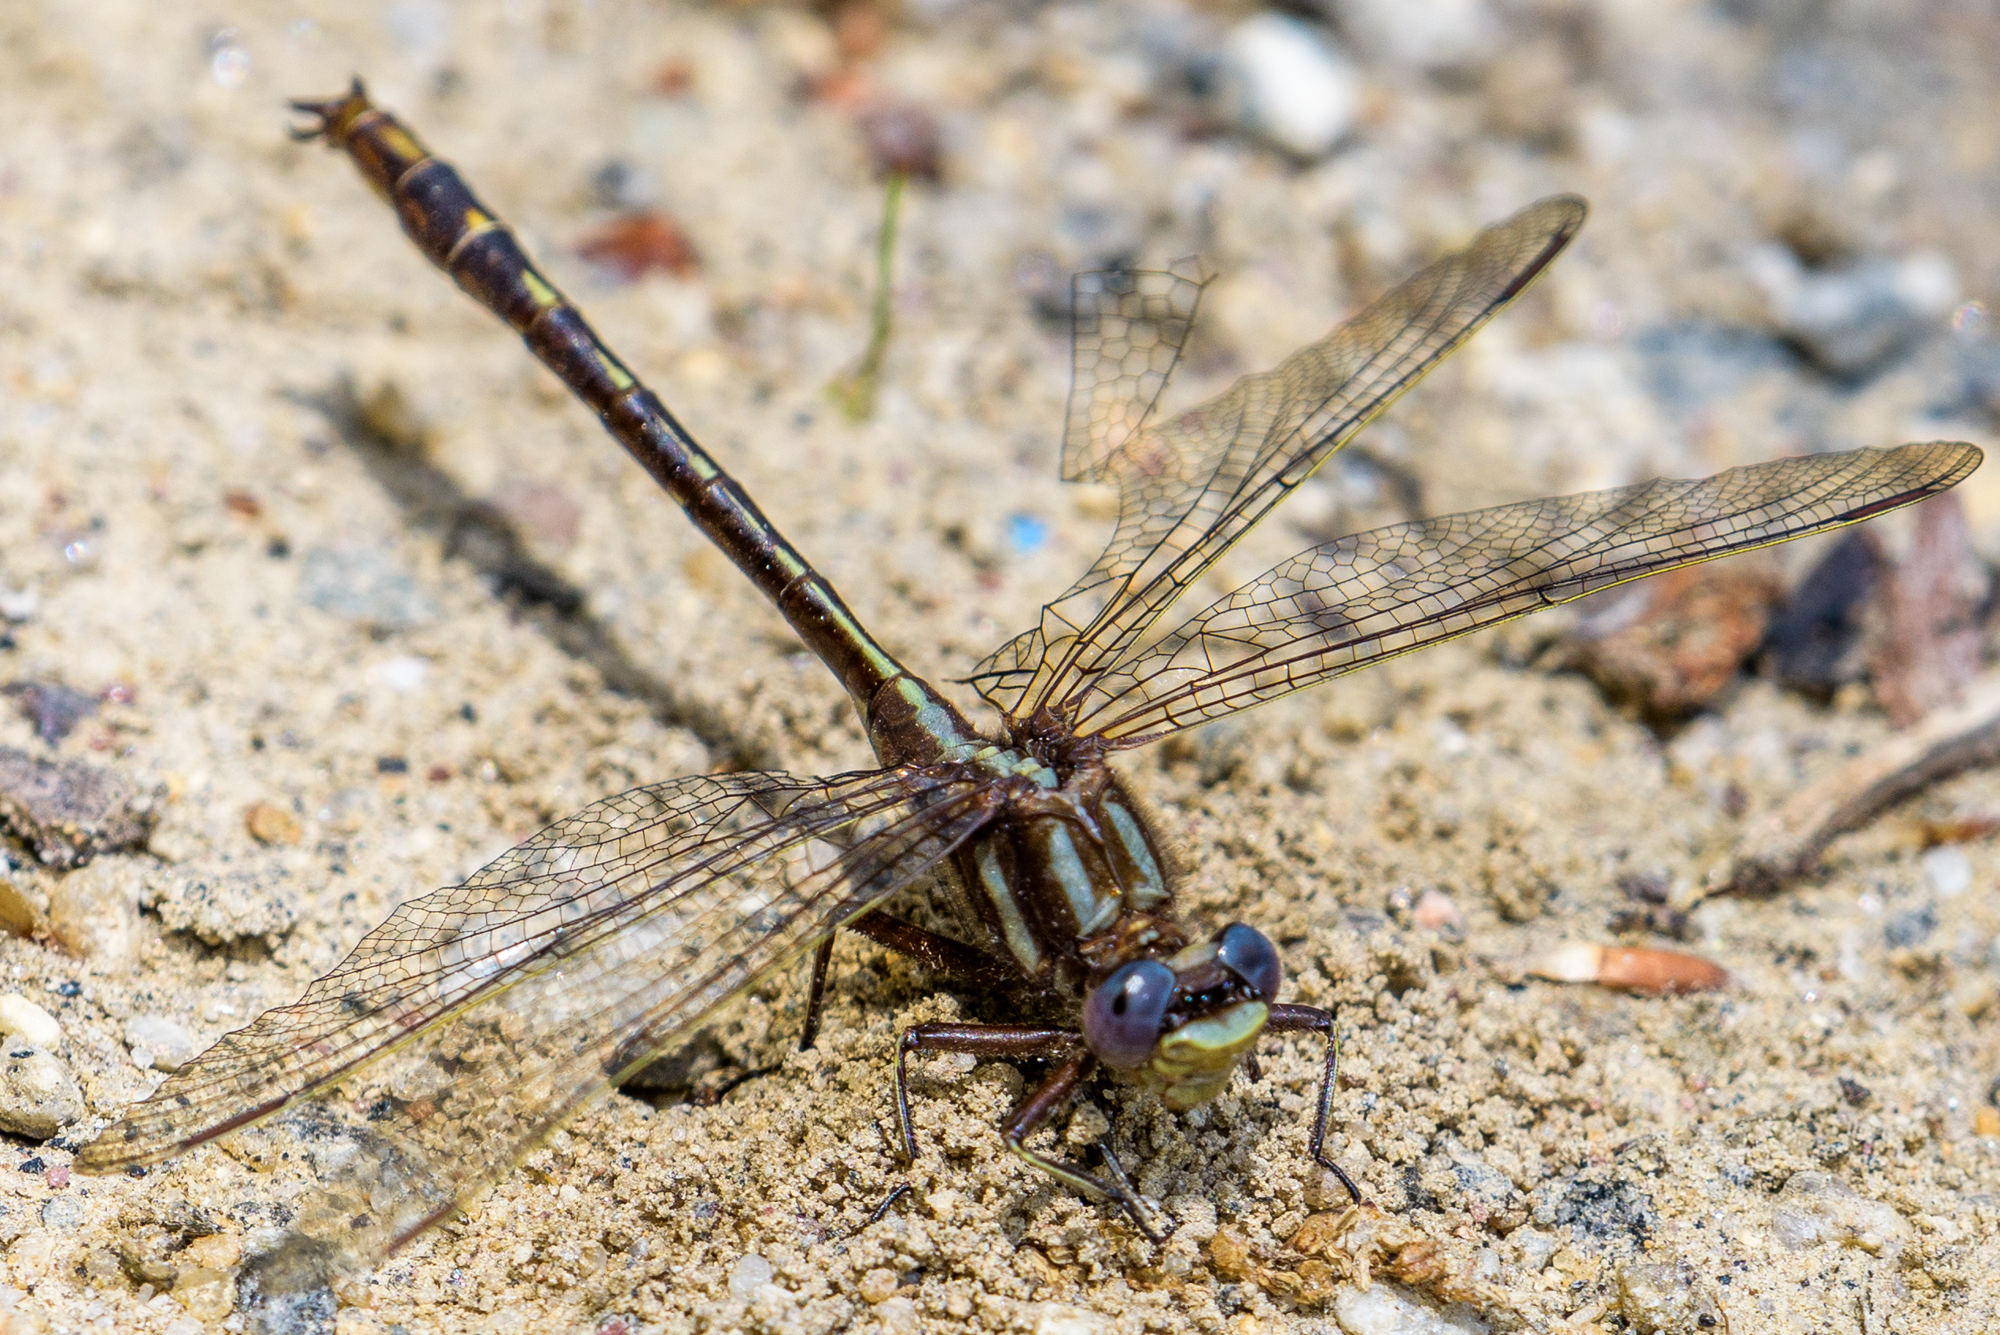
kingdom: Animalia
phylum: Arthropoda
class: Insecta
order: Odonata
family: Gomphidae
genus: Phanogomphus
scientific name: Phanogomphus lividus
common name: Ashy clubtail
